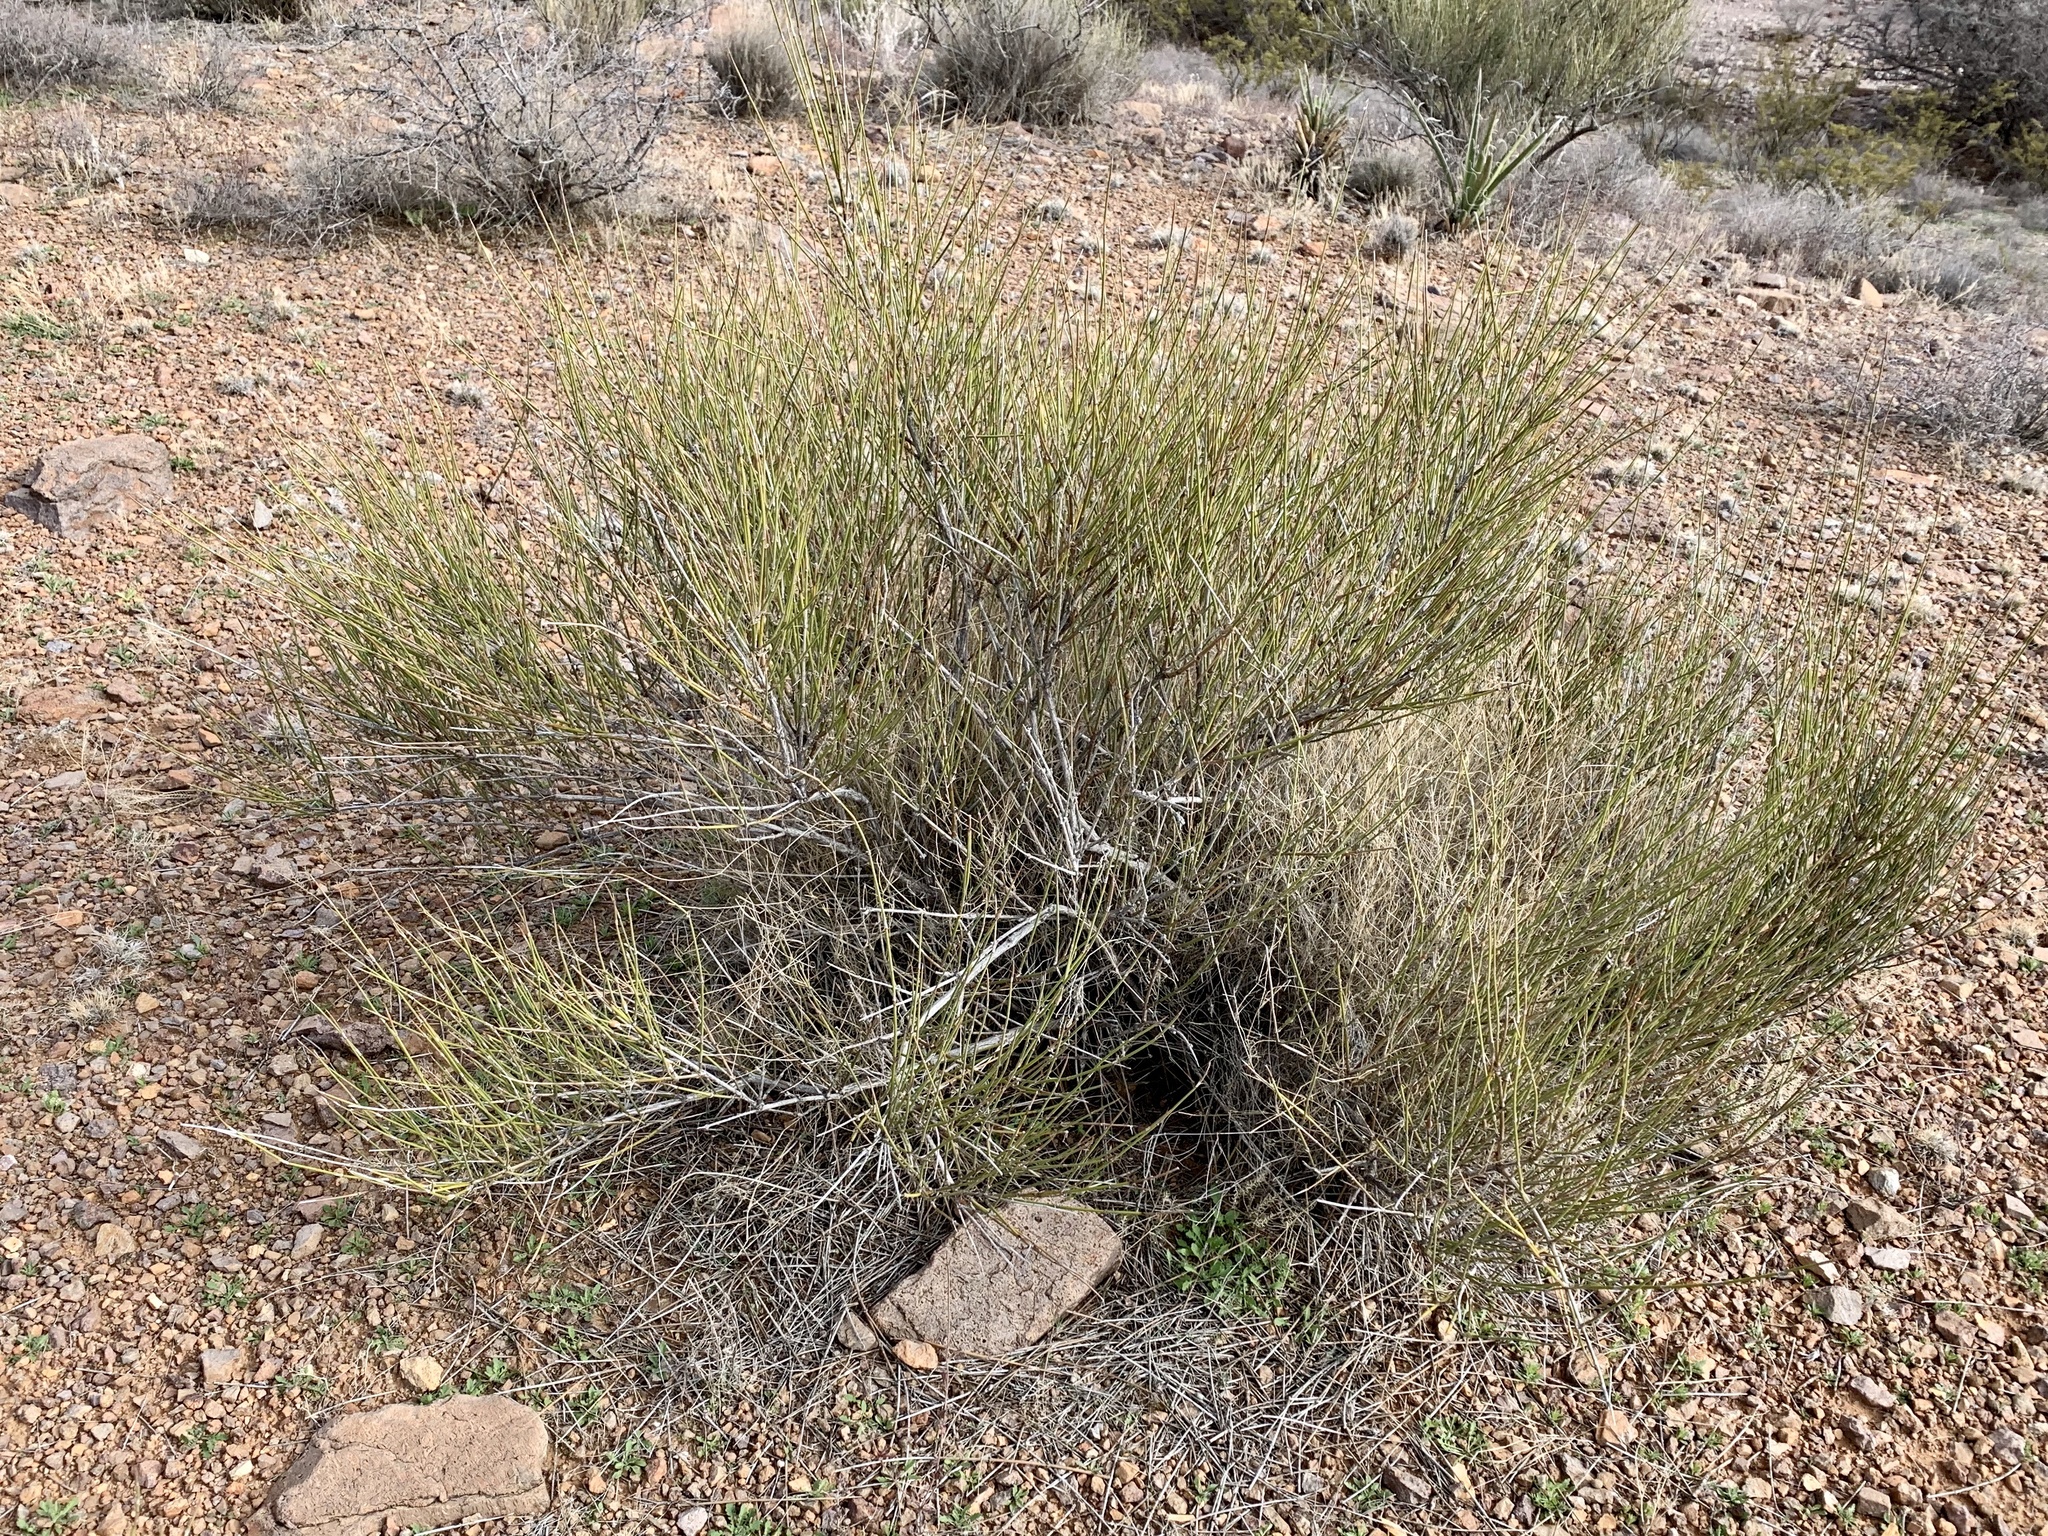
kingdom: Plantae
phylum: Tracheophyta
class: Gnetopsida
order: Ephedrales
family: Ephedraceae
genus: Ephedra
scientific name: Ephedra trifurca
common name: Mexican-tea
